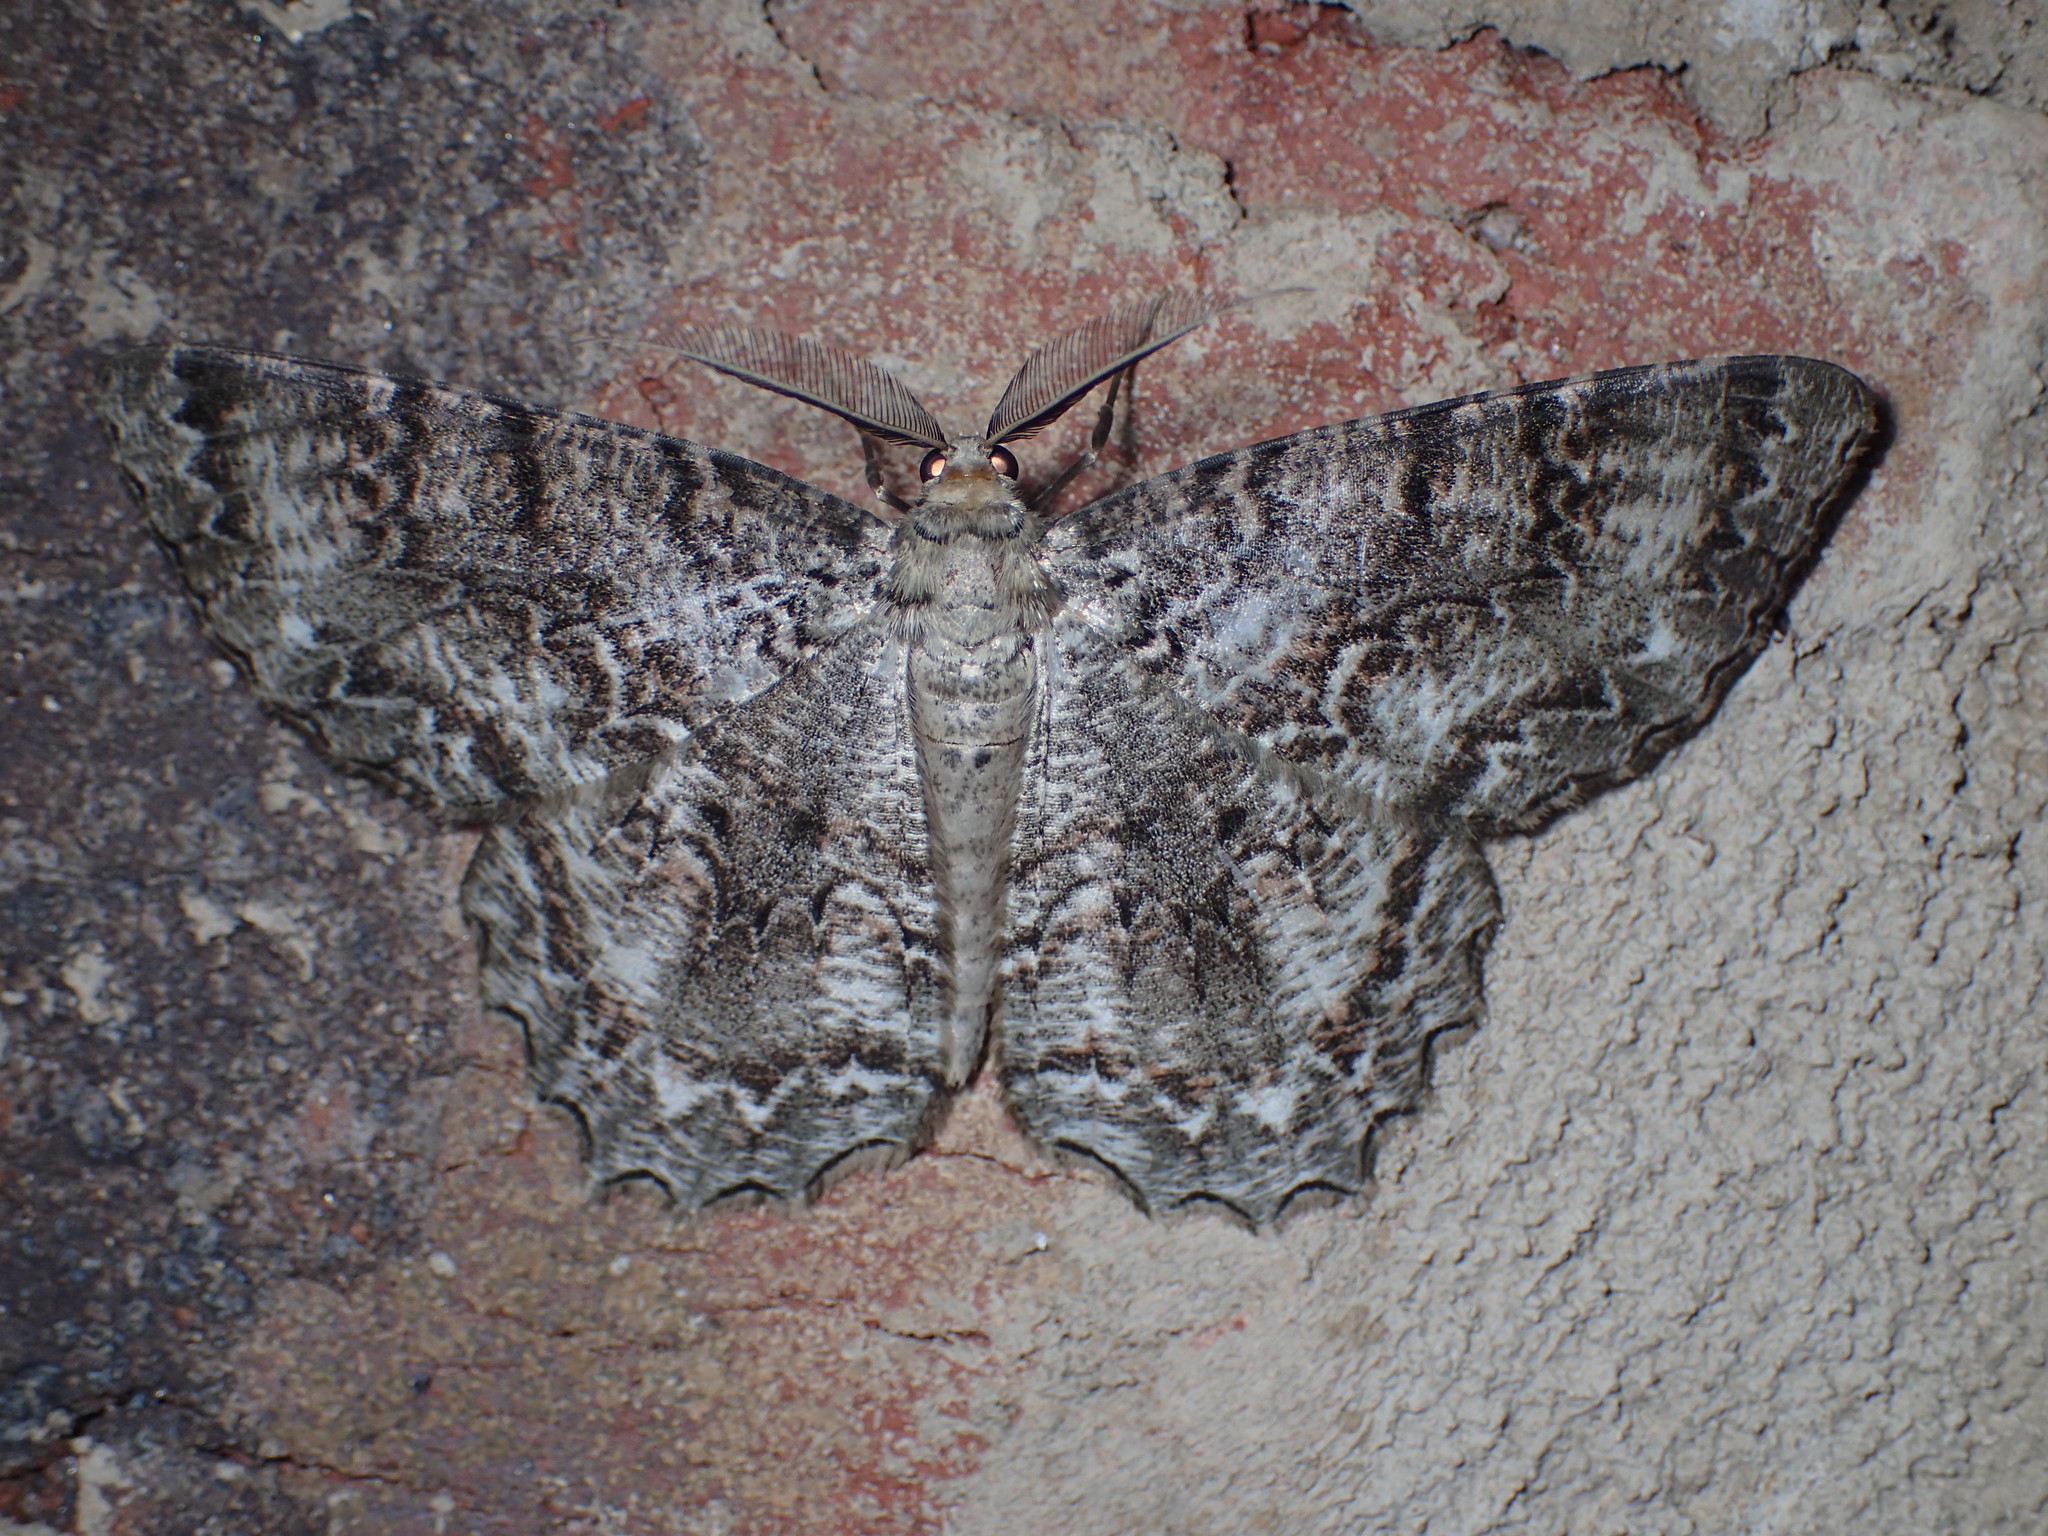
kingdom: Animalia
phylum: Arthropoda
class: Insecta
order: Lepidoptera
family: Geometridae
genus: Epimecis
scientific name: Epimecis hortaria
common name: Tulip-tree beauty
